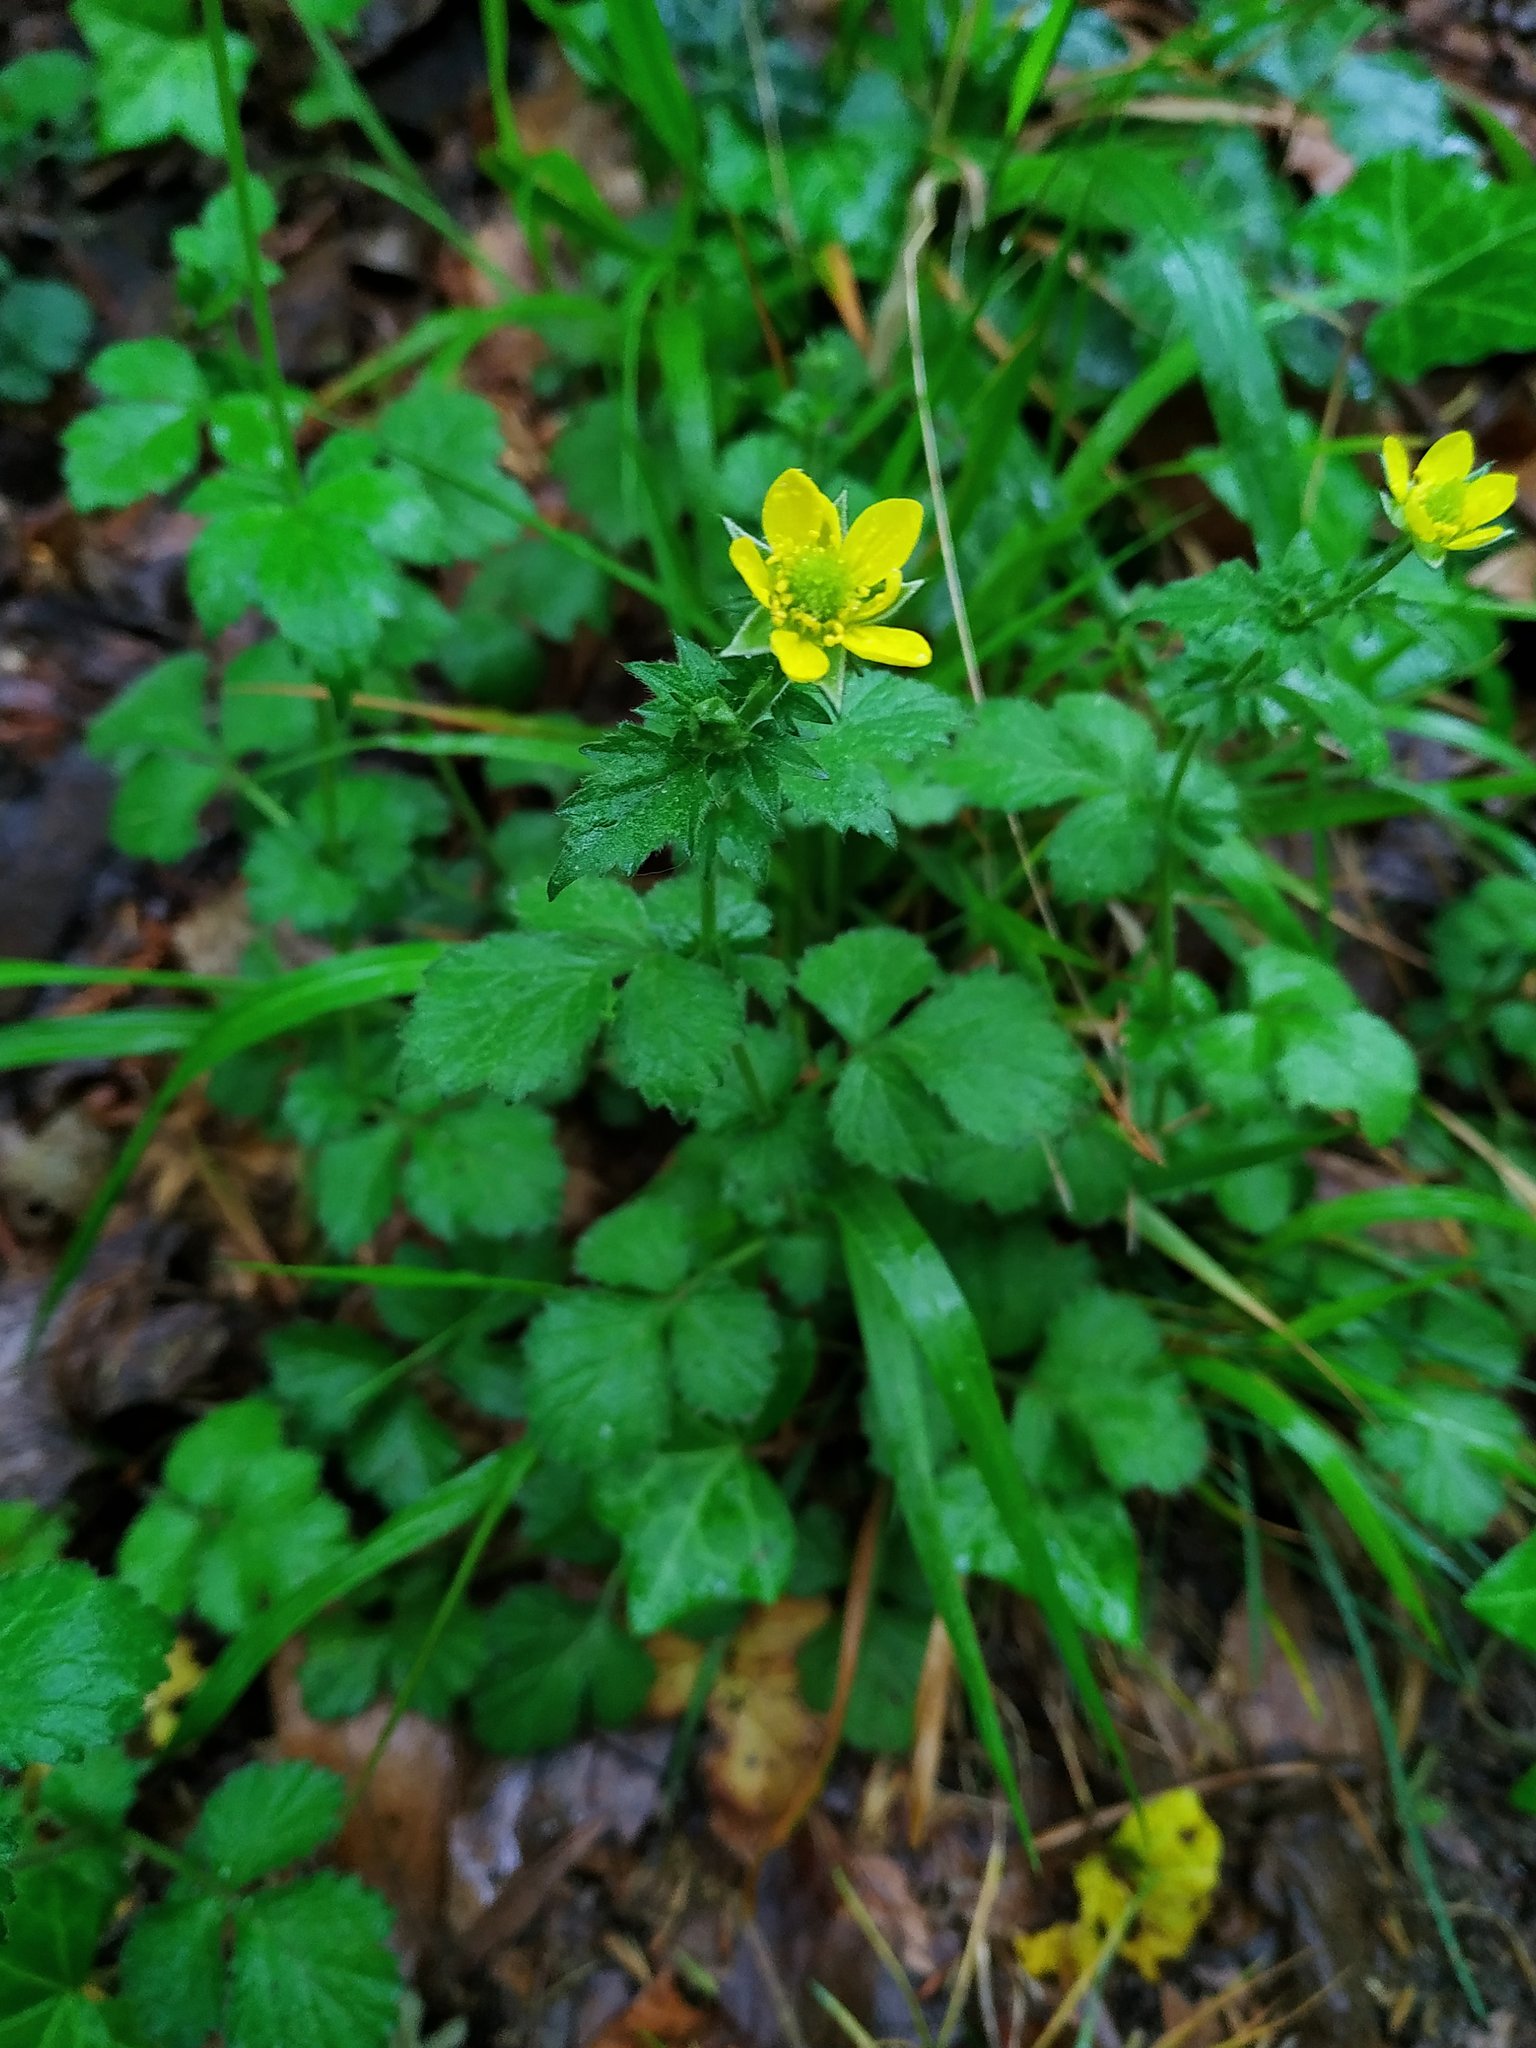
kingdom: Plantae
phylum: Tracheophyta
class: Magnoliopsida
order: Rosales
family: Rosaceae
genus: Geum
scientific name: Geum urbanum
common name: Wood avens
